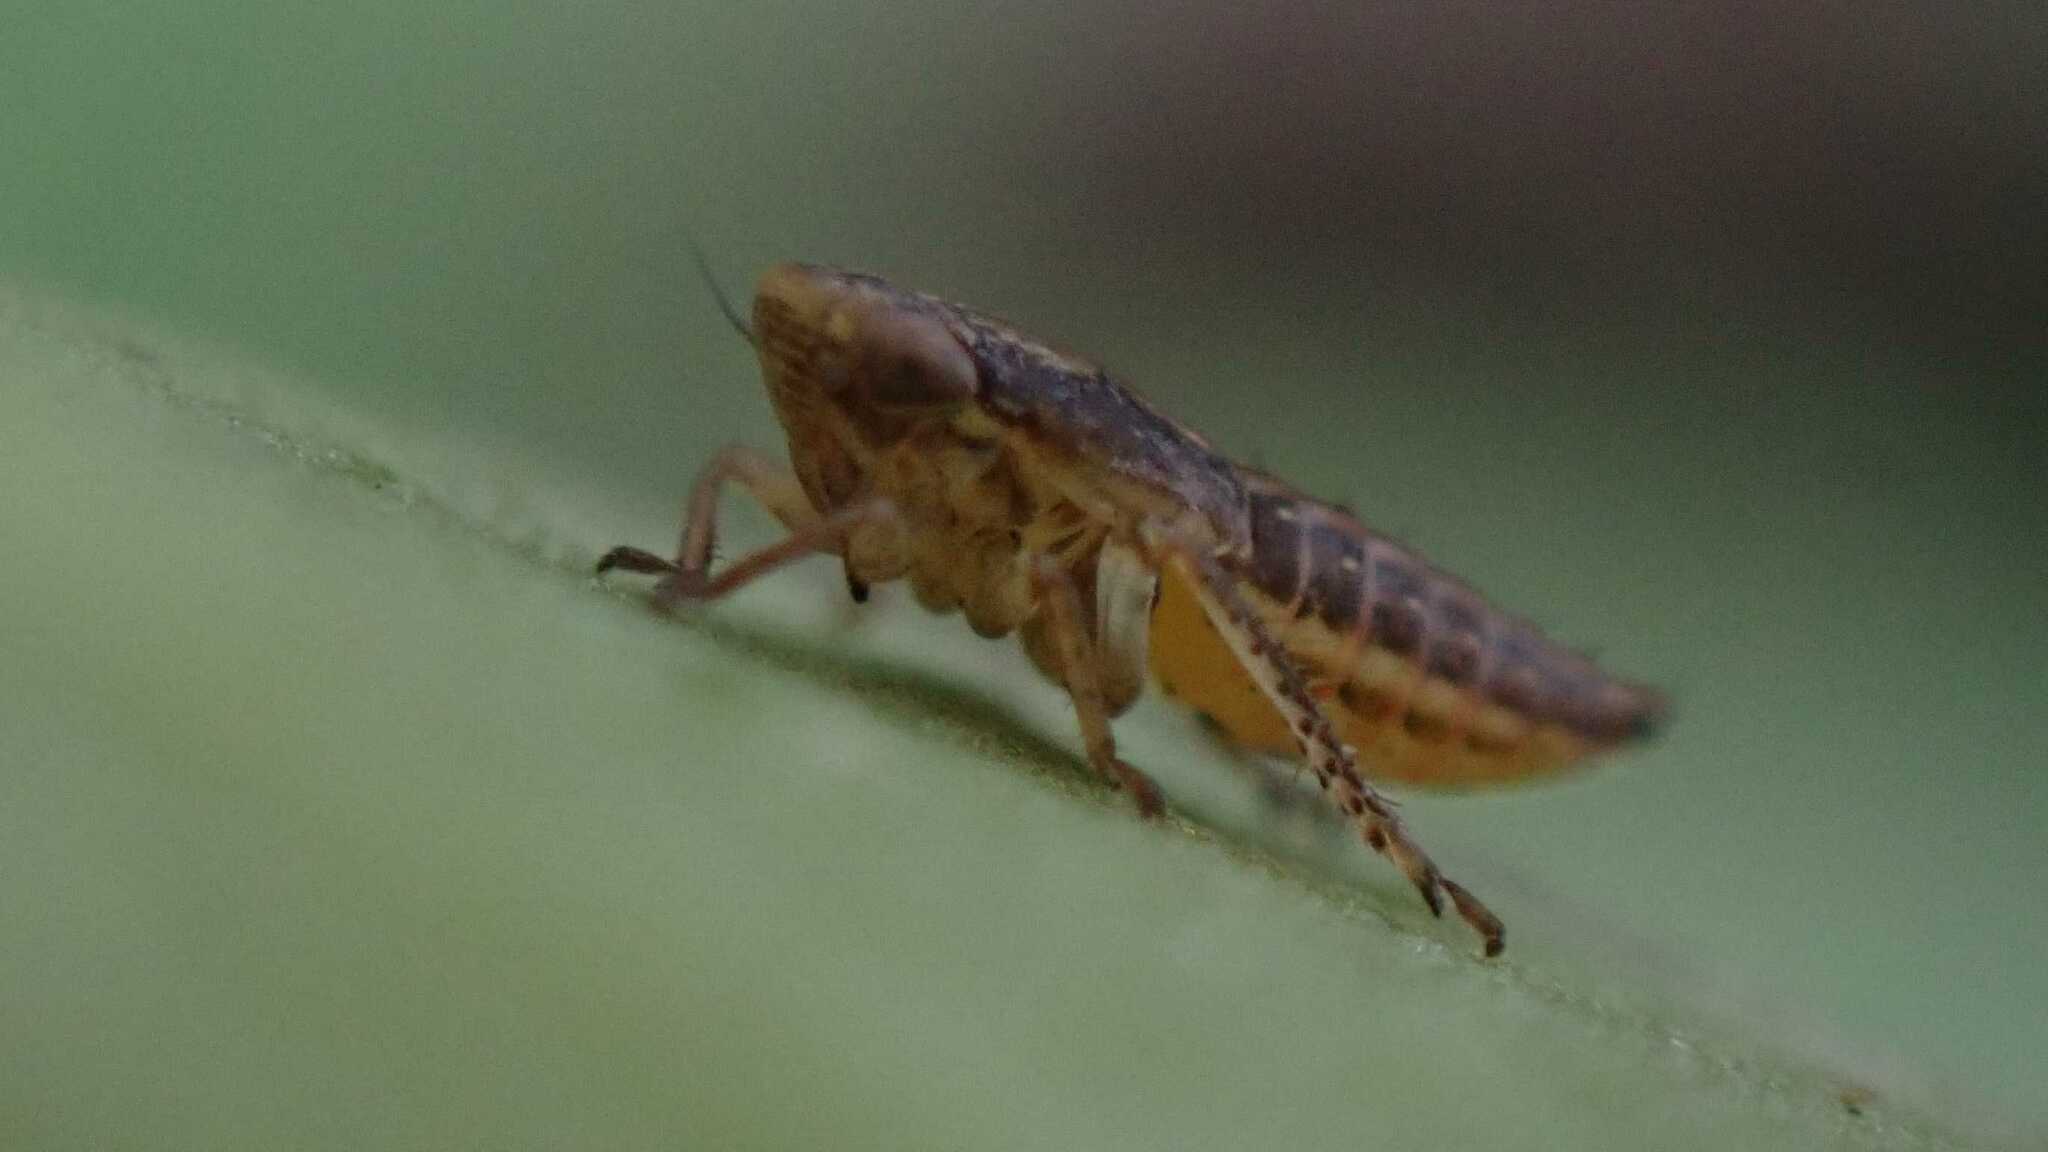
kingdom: Animalia
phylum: Arthropoda
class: Insecta
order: Hemiptera
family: Cicadellidae
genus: Euscelis
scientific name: Euscelis incisa
